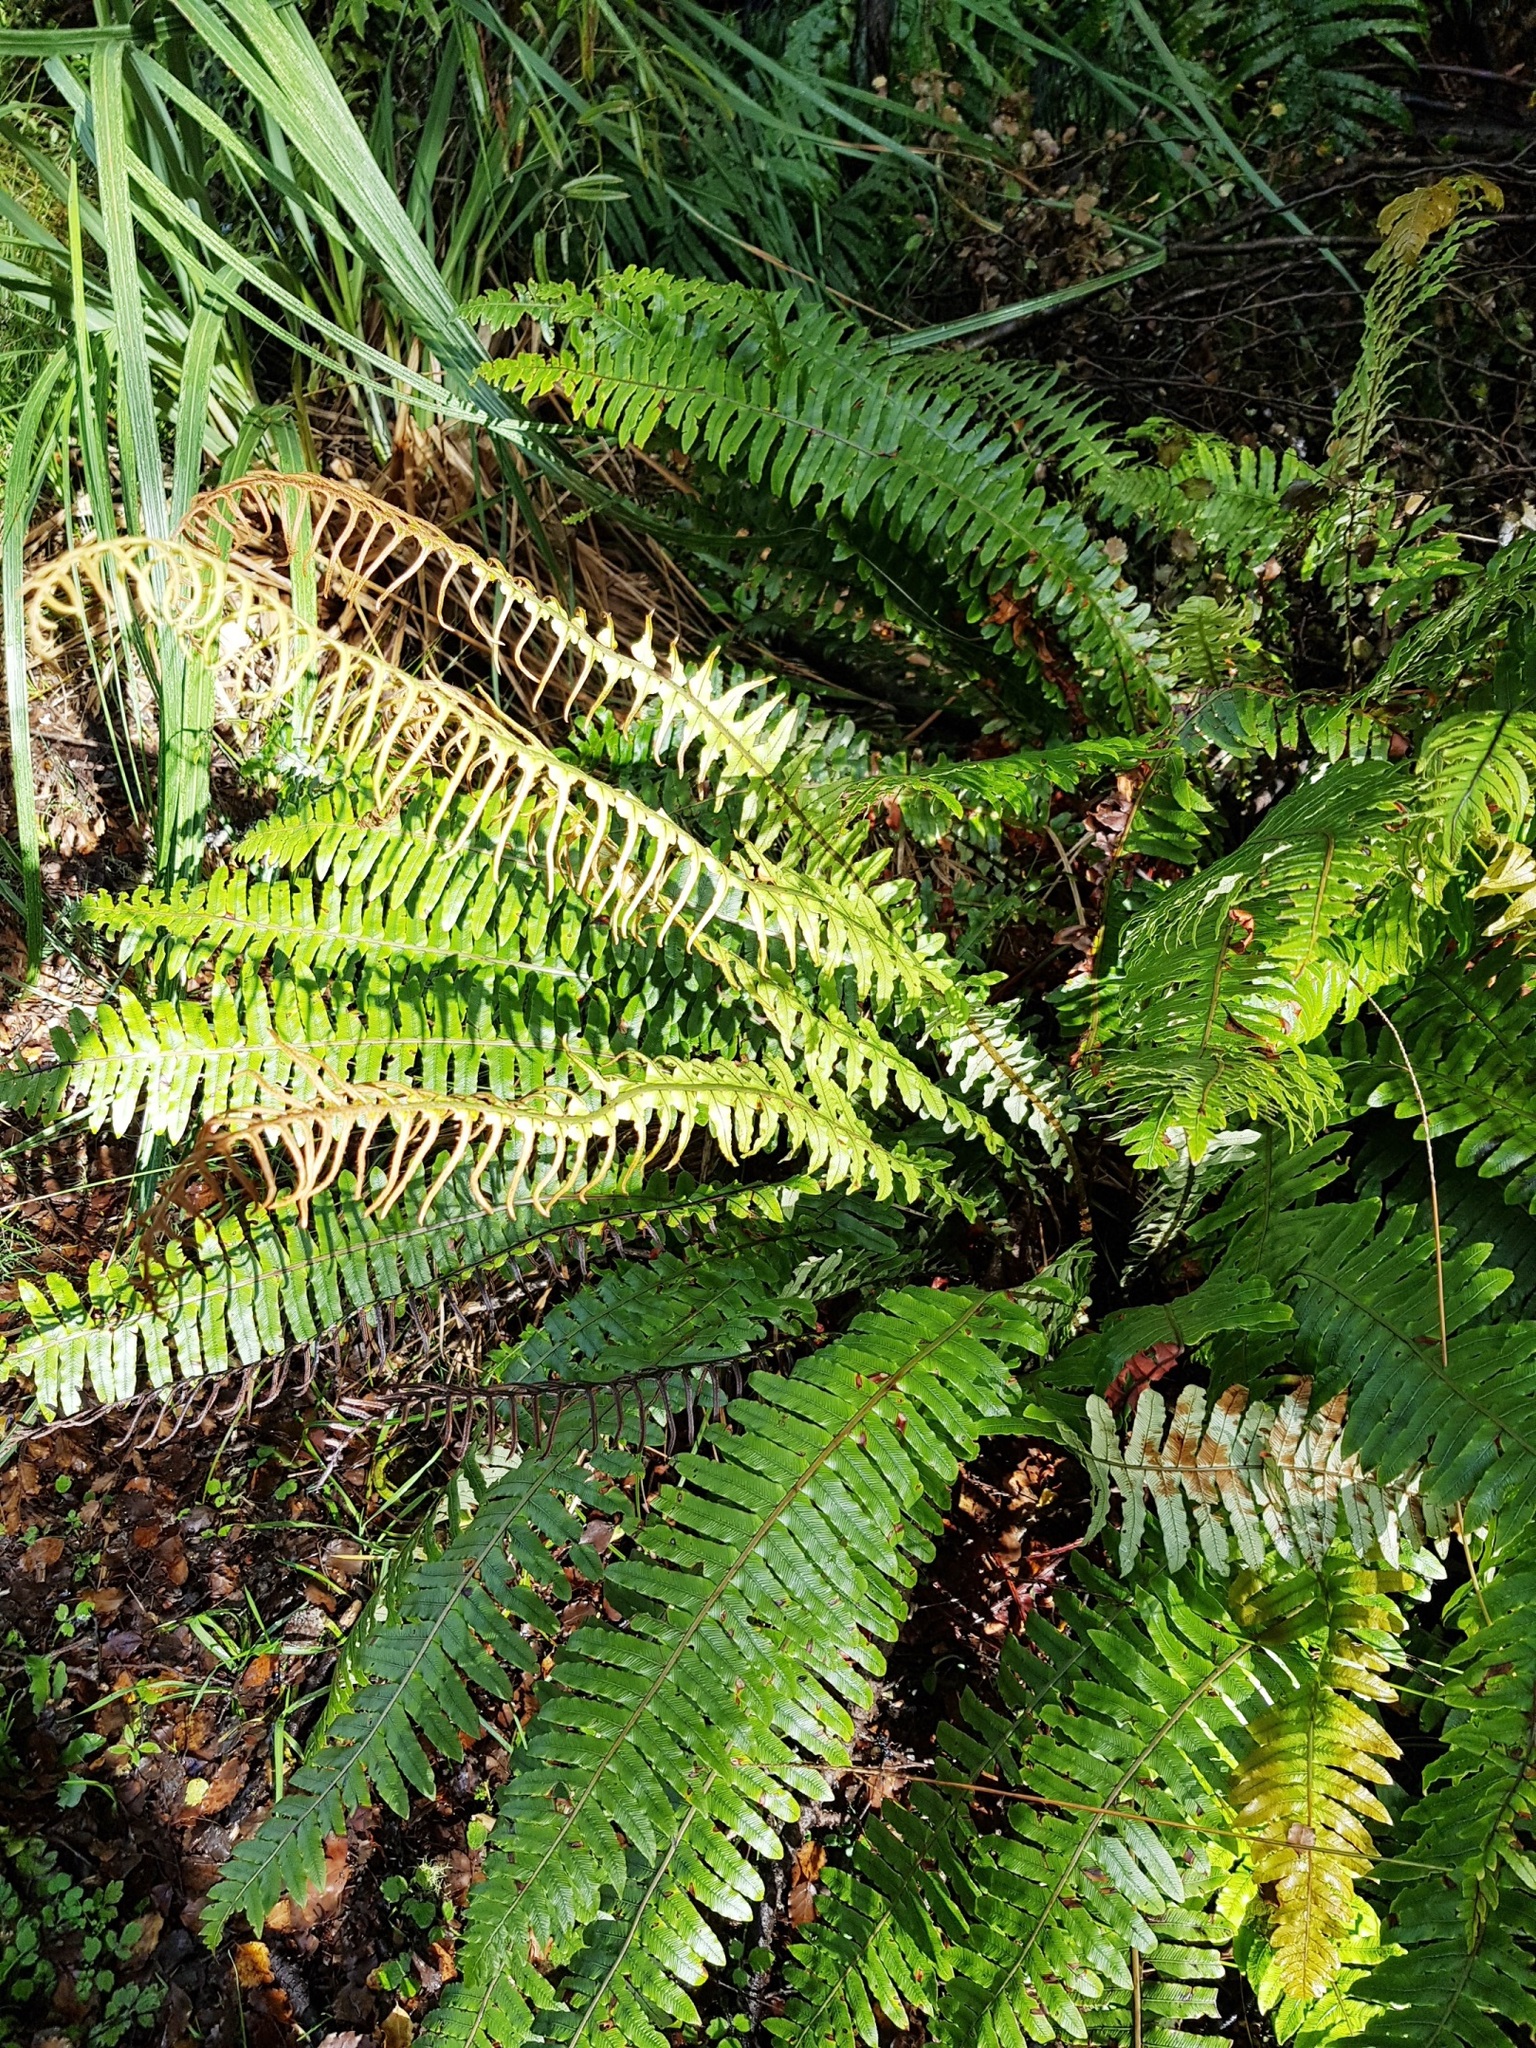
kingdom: Plantae
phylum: Tracheophyta
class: Polypodiopsida
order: Polypodiales
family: Blechnaceae
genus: Lomaria
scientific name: Lomaria discolor
